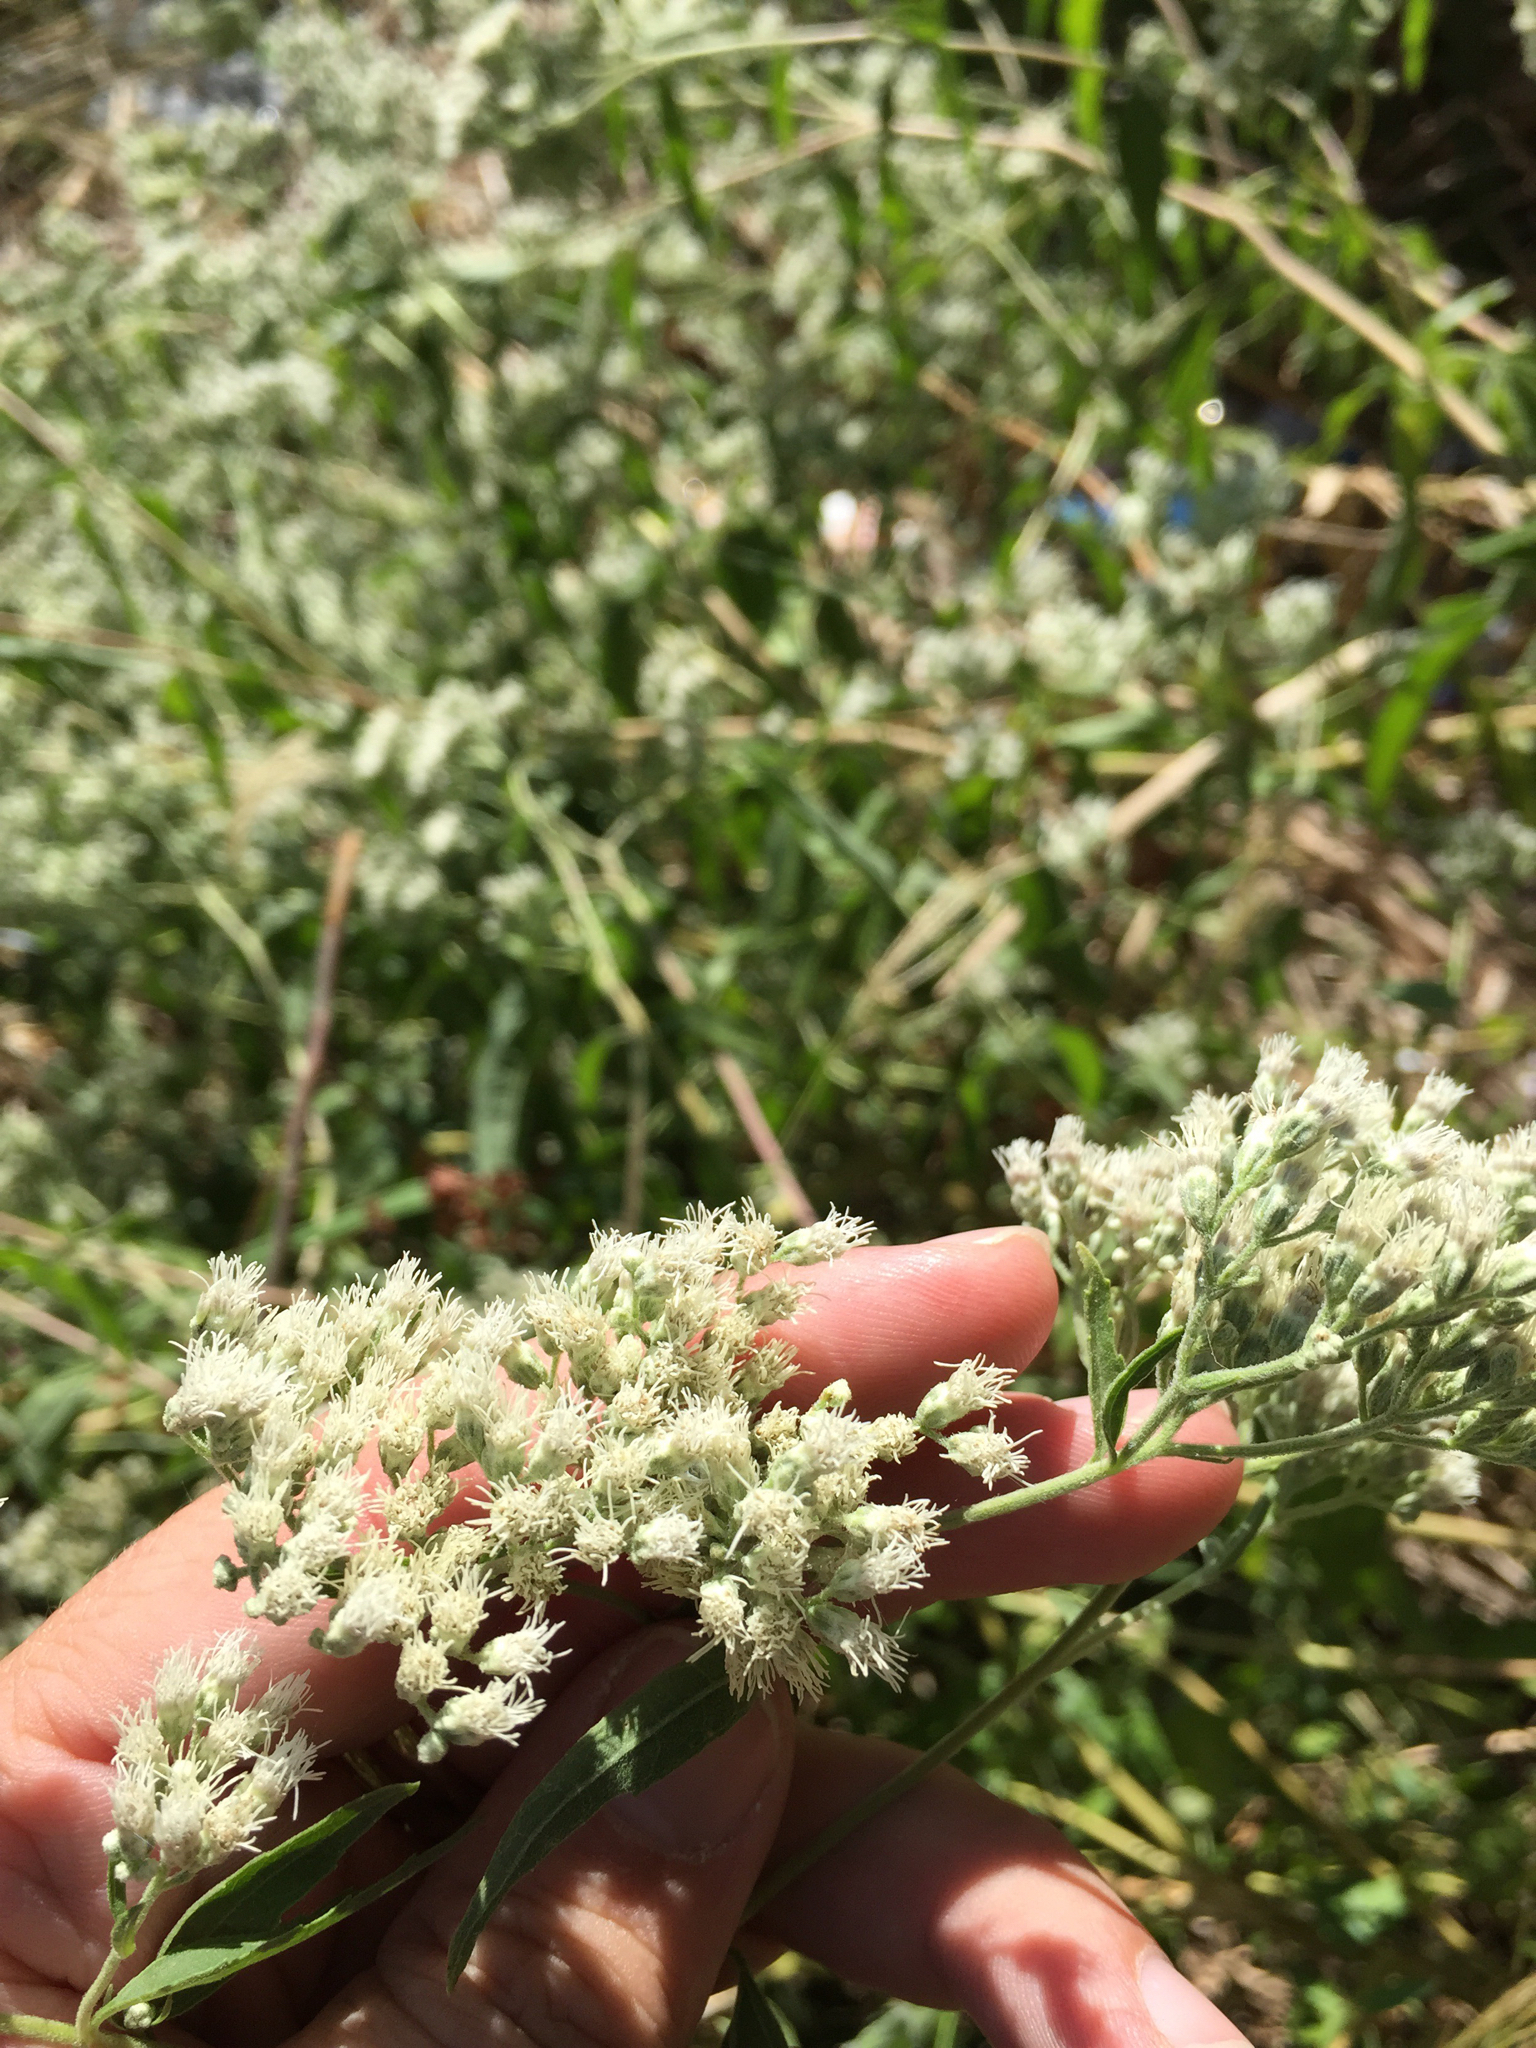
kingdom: Plantae
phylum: Tracheophyta
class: Magnoliopsida
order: Asterales
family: Asteraceae
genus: Eupatorium
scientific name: Eupatorium serotinum
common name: Late boneset
